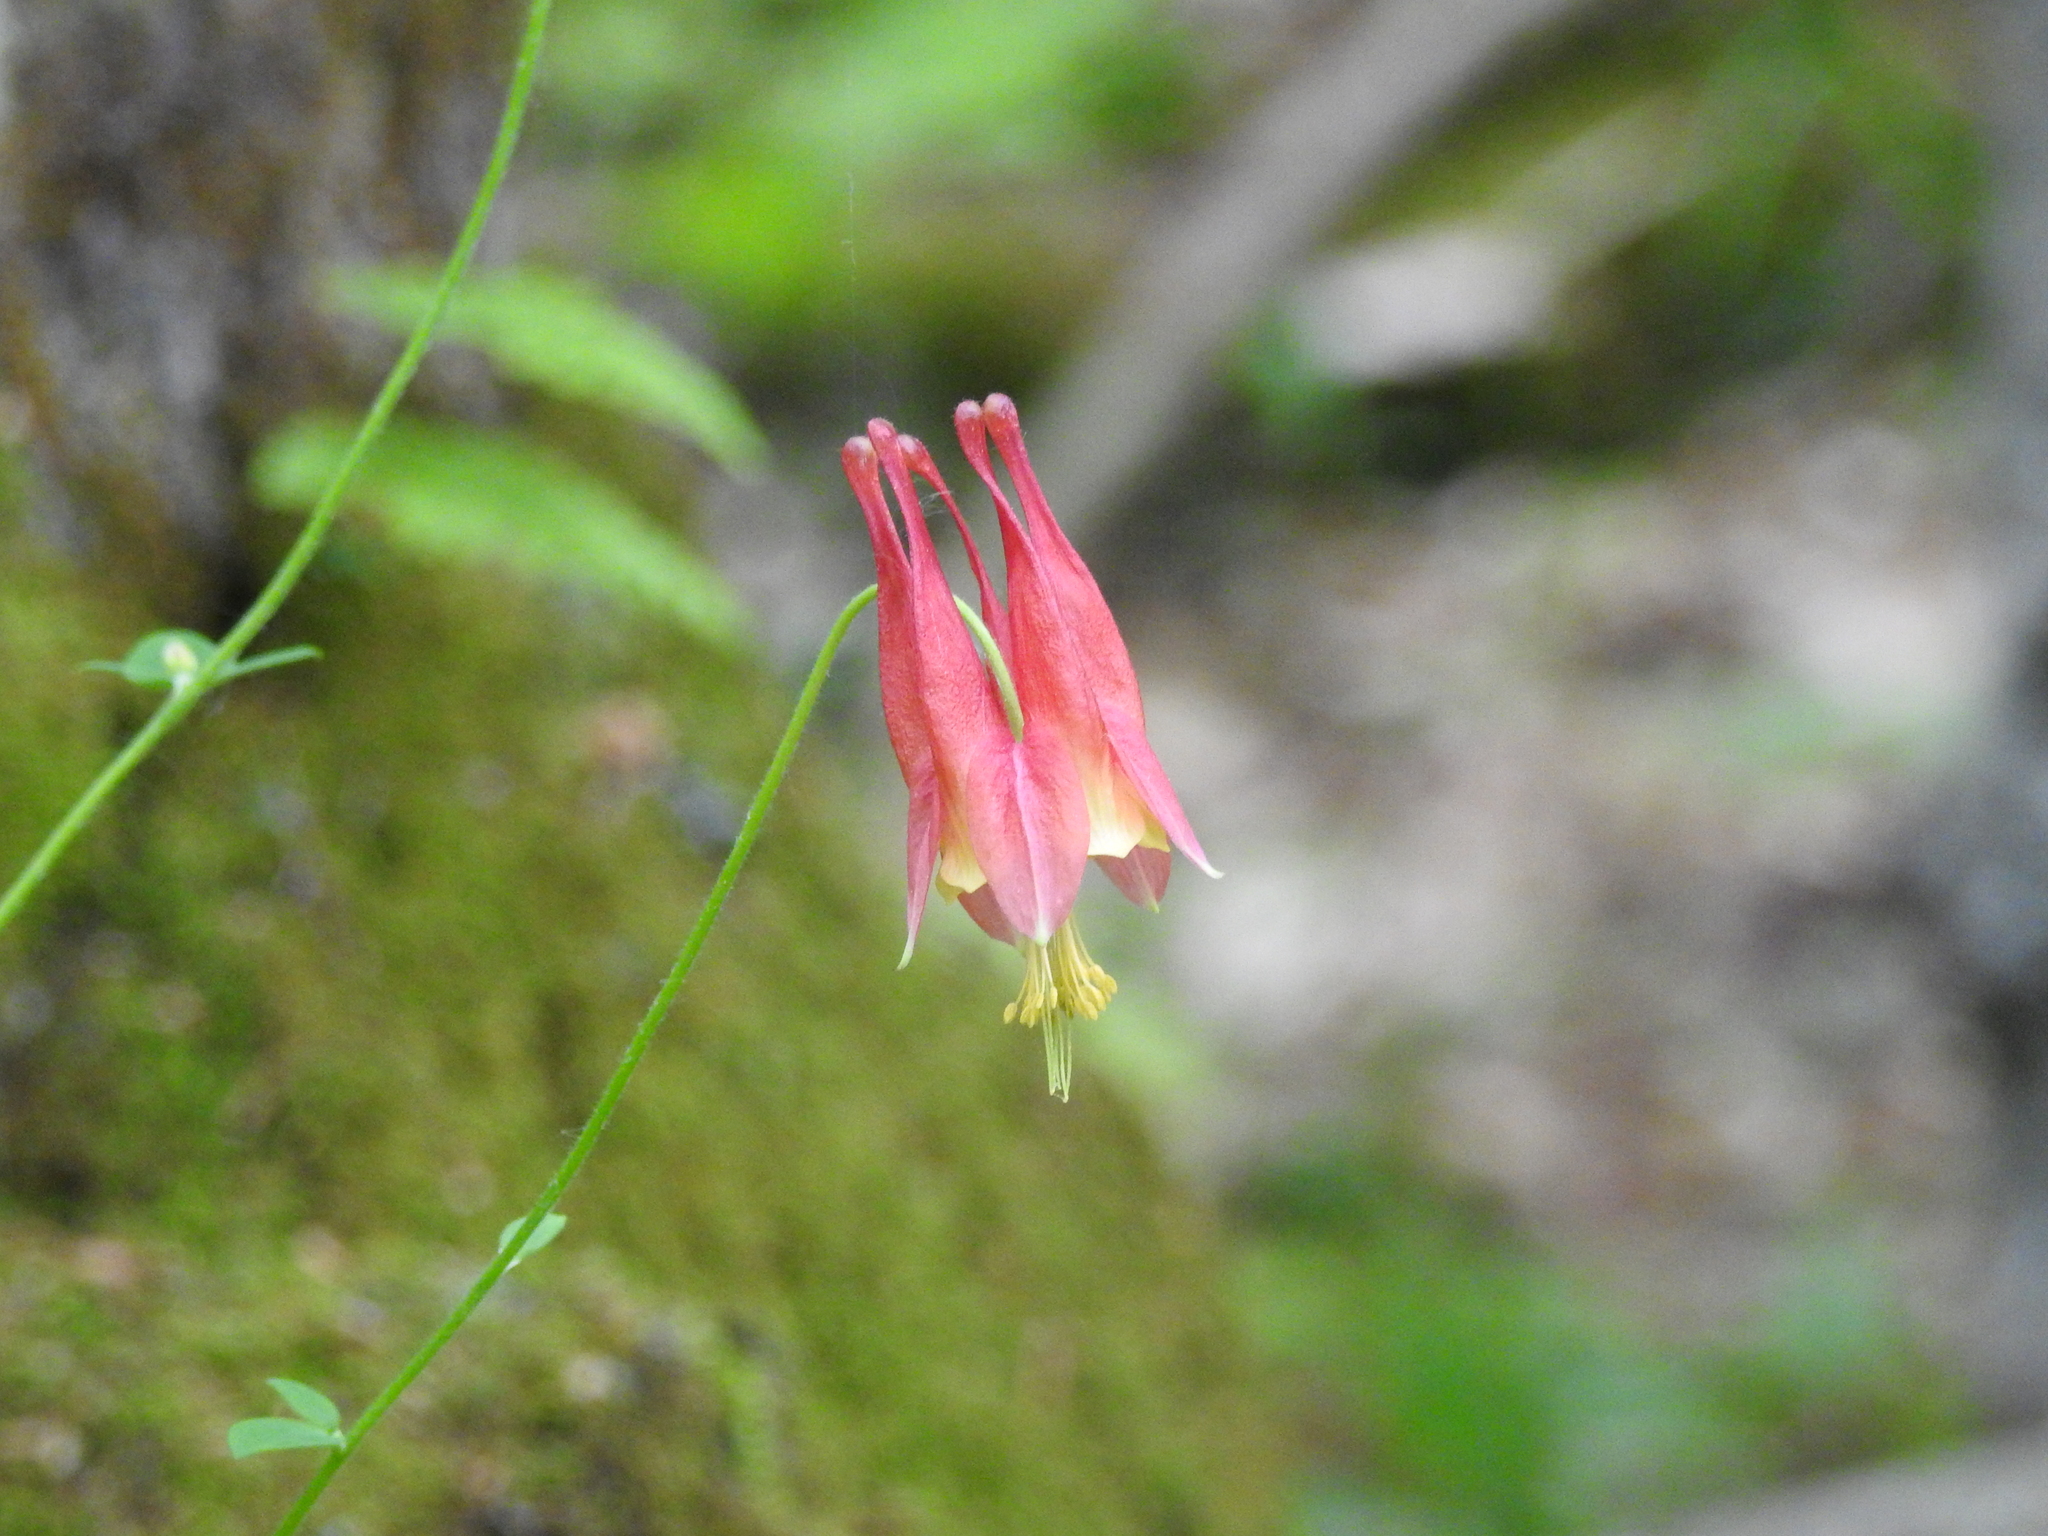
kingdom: Plantae
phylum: Tracheophyta
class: Magnoliopsida
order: Ranunculales
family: Ranunculaceae
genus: Aquilegia
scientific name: Aquilegia canadensis
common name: American columbine
